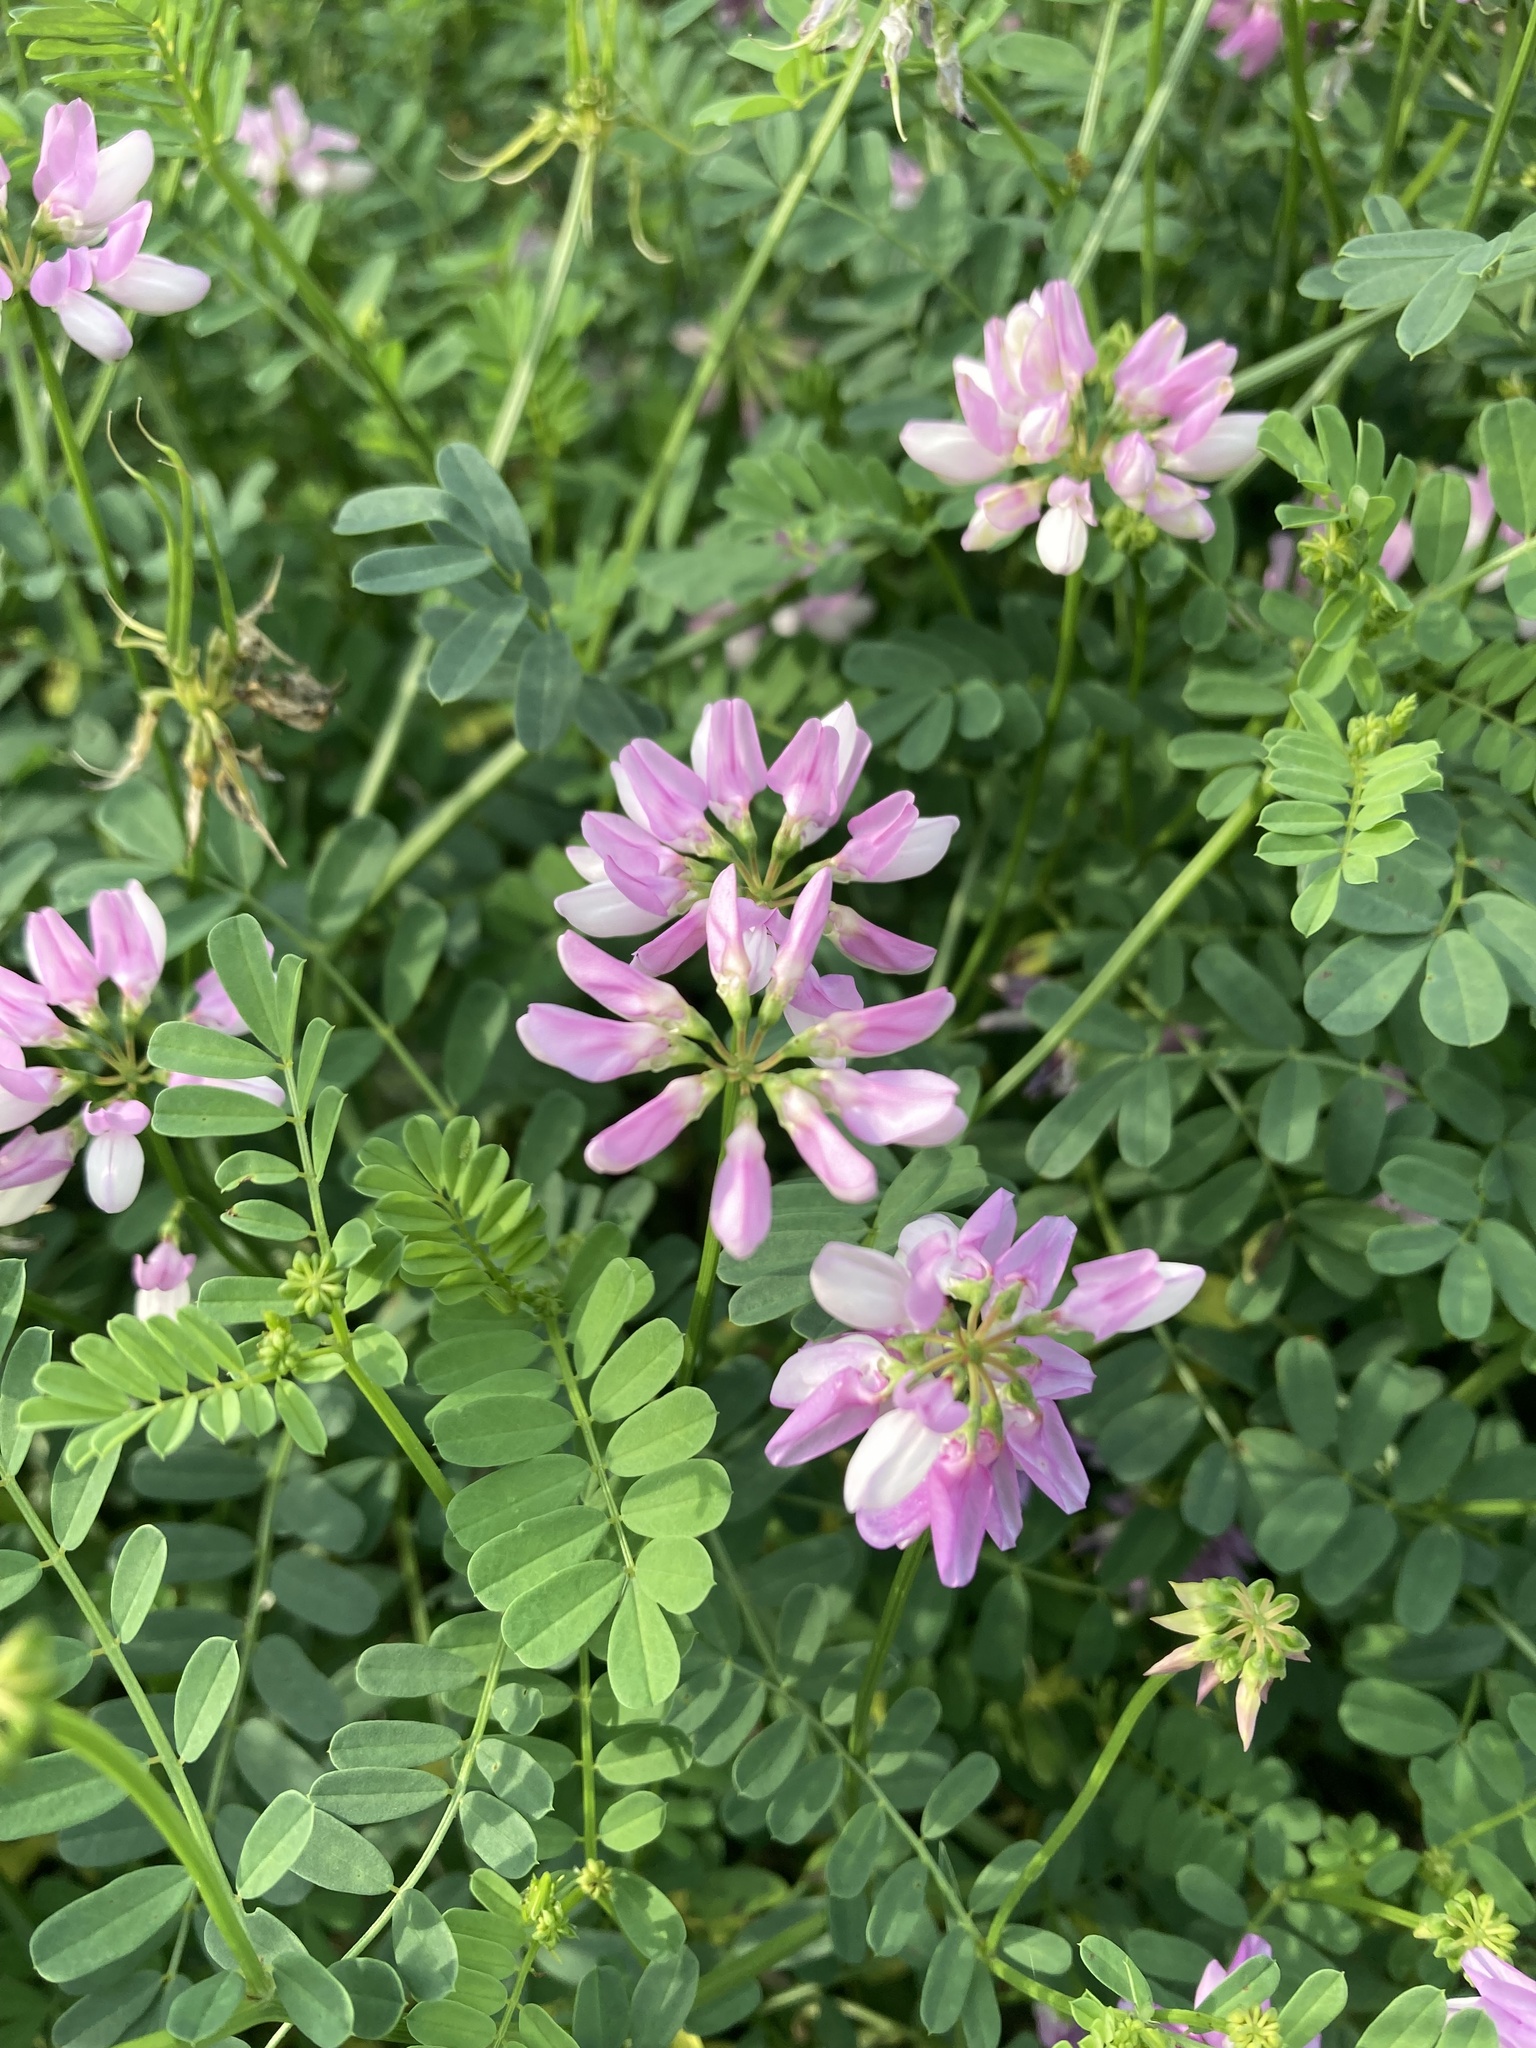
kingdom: Plantae
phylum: Tracheophyta
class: Magnoliopsida
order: Fabales
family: Fabaceae
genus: Coronilla
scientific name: Coronilla varia
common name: Crownvetch
